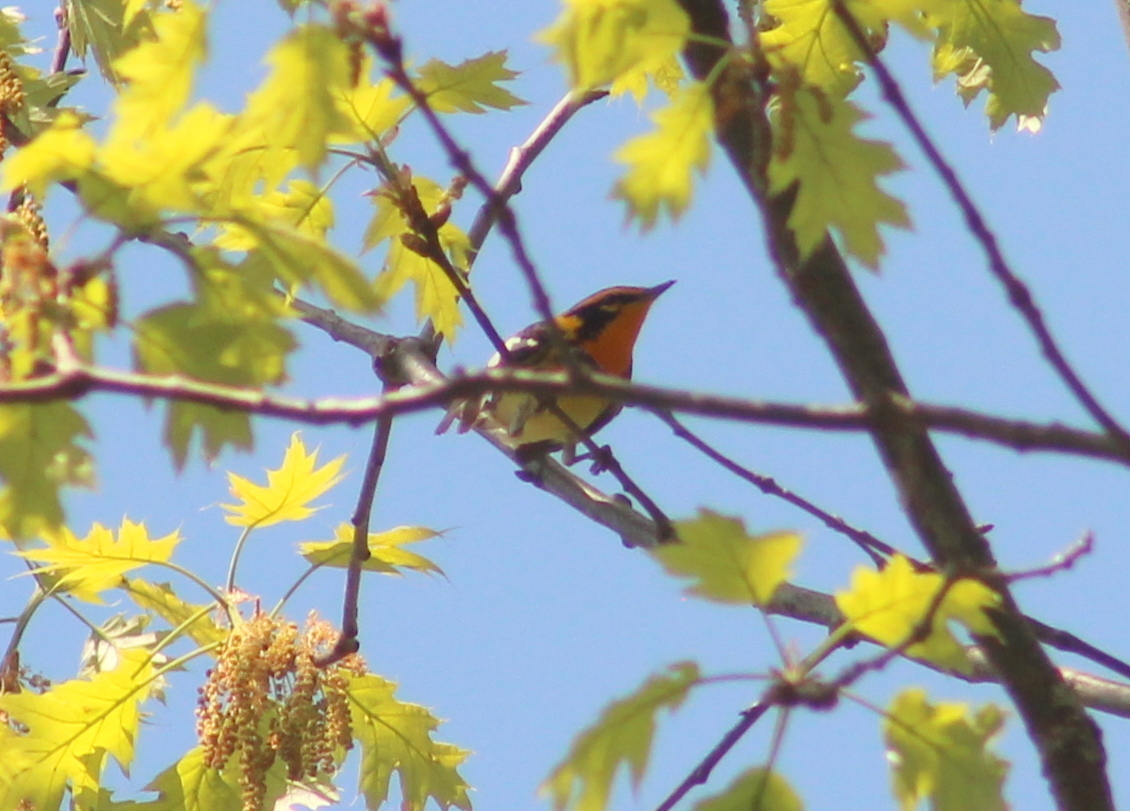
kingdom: Animalia
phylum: Chordata
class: Aves
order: Passeriformes
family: Parulidae
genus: Setophaga
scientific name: Setophaga fusca
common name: Blackburnian warbler
